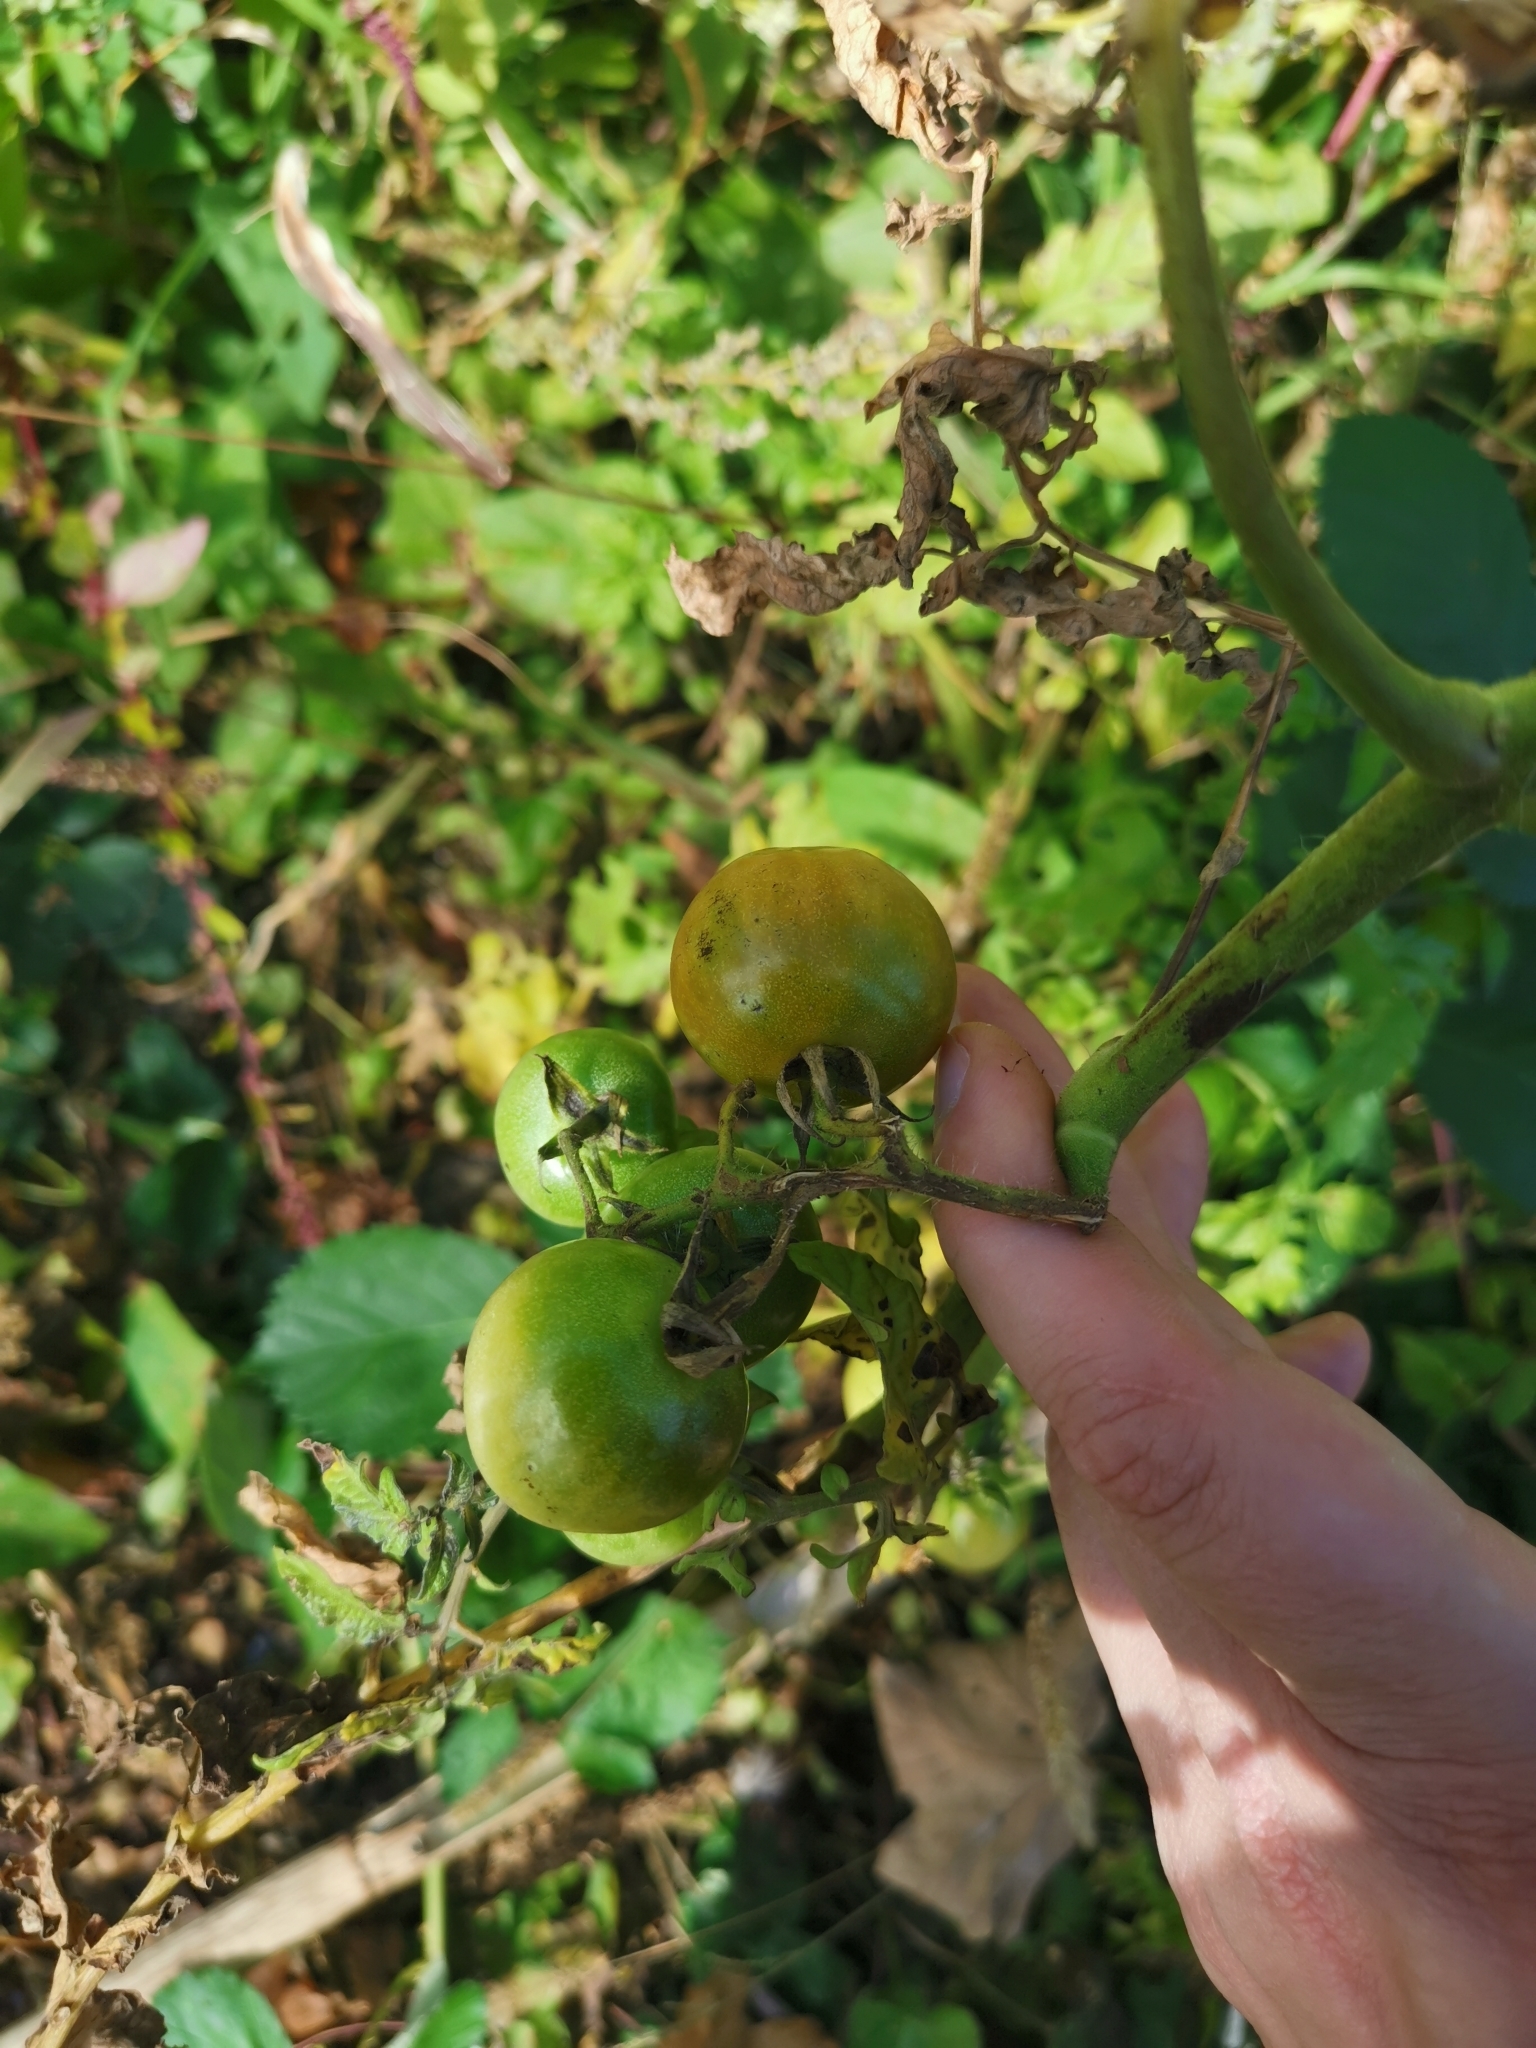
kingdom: Plantae
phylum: Tracheophyta
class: Magnoliopsida
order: Solanales
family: Solanaceae
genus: Solanum
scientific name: Solanum lycopersicum
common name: Garden tomato
